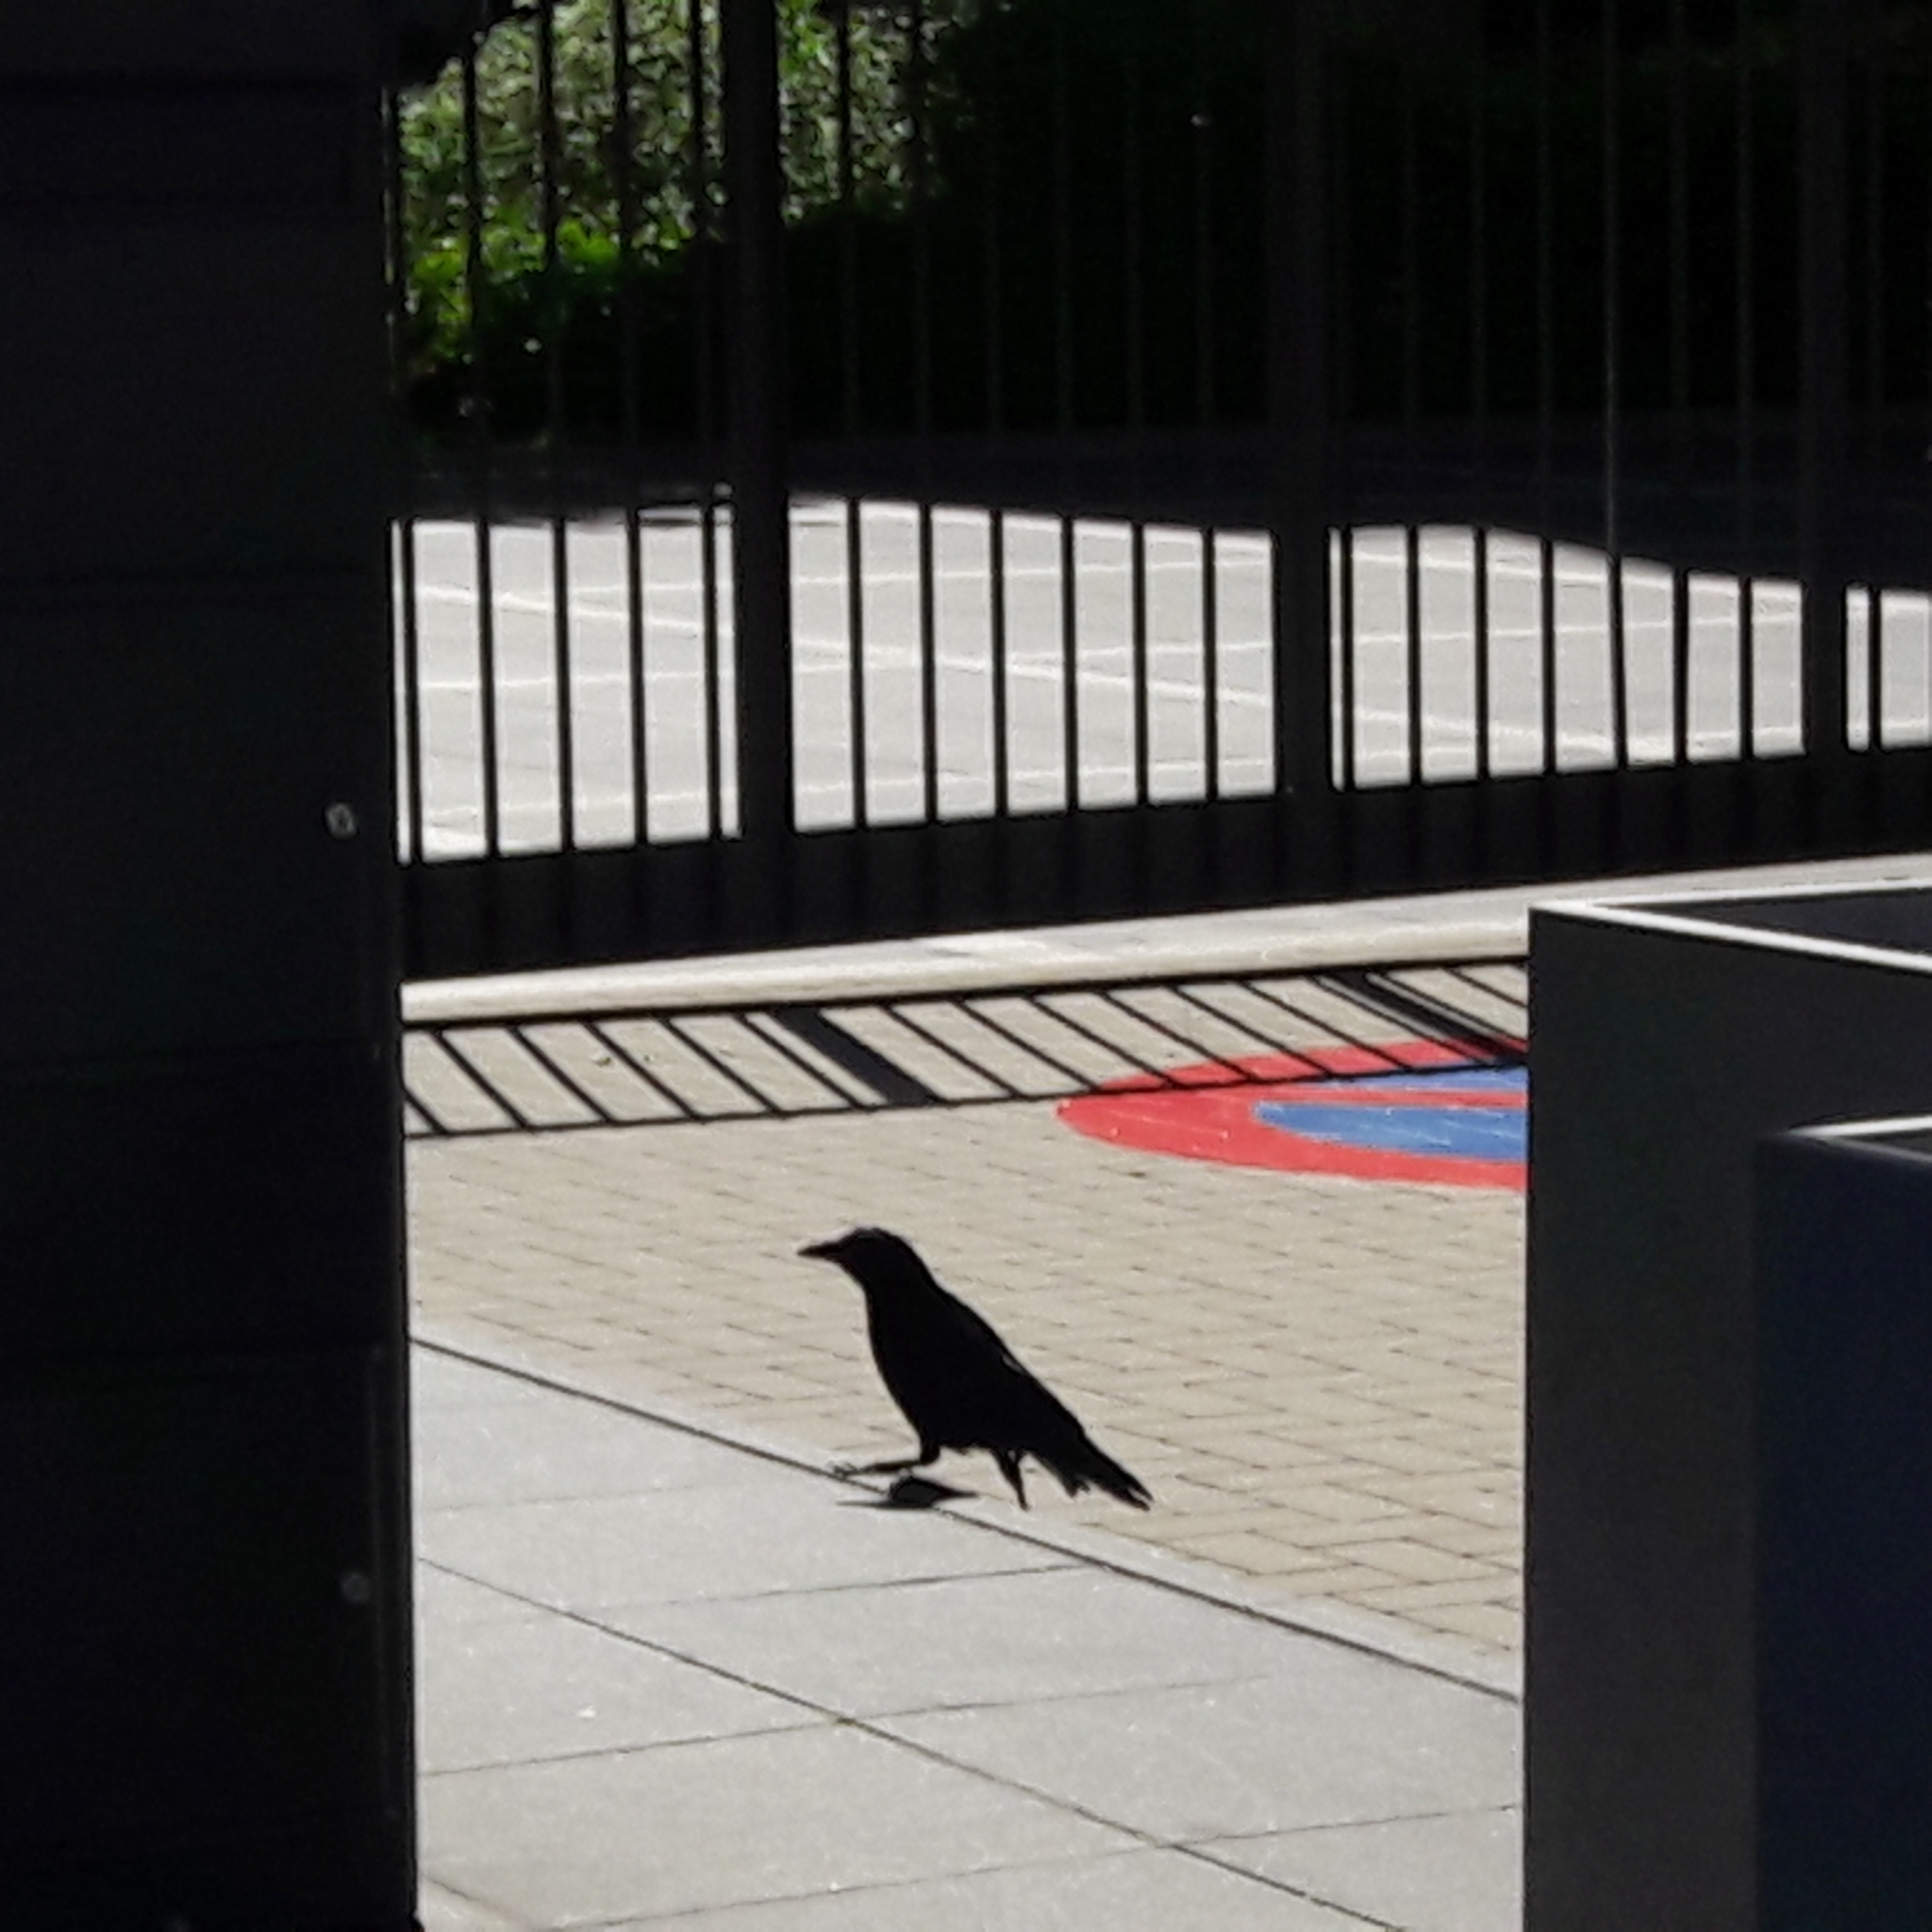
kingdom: Animalia
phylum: Chordata
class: Aves
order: Passeriformes
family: Corvidae
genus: Corvus
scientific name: Corvus corone
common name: Carrion crow
